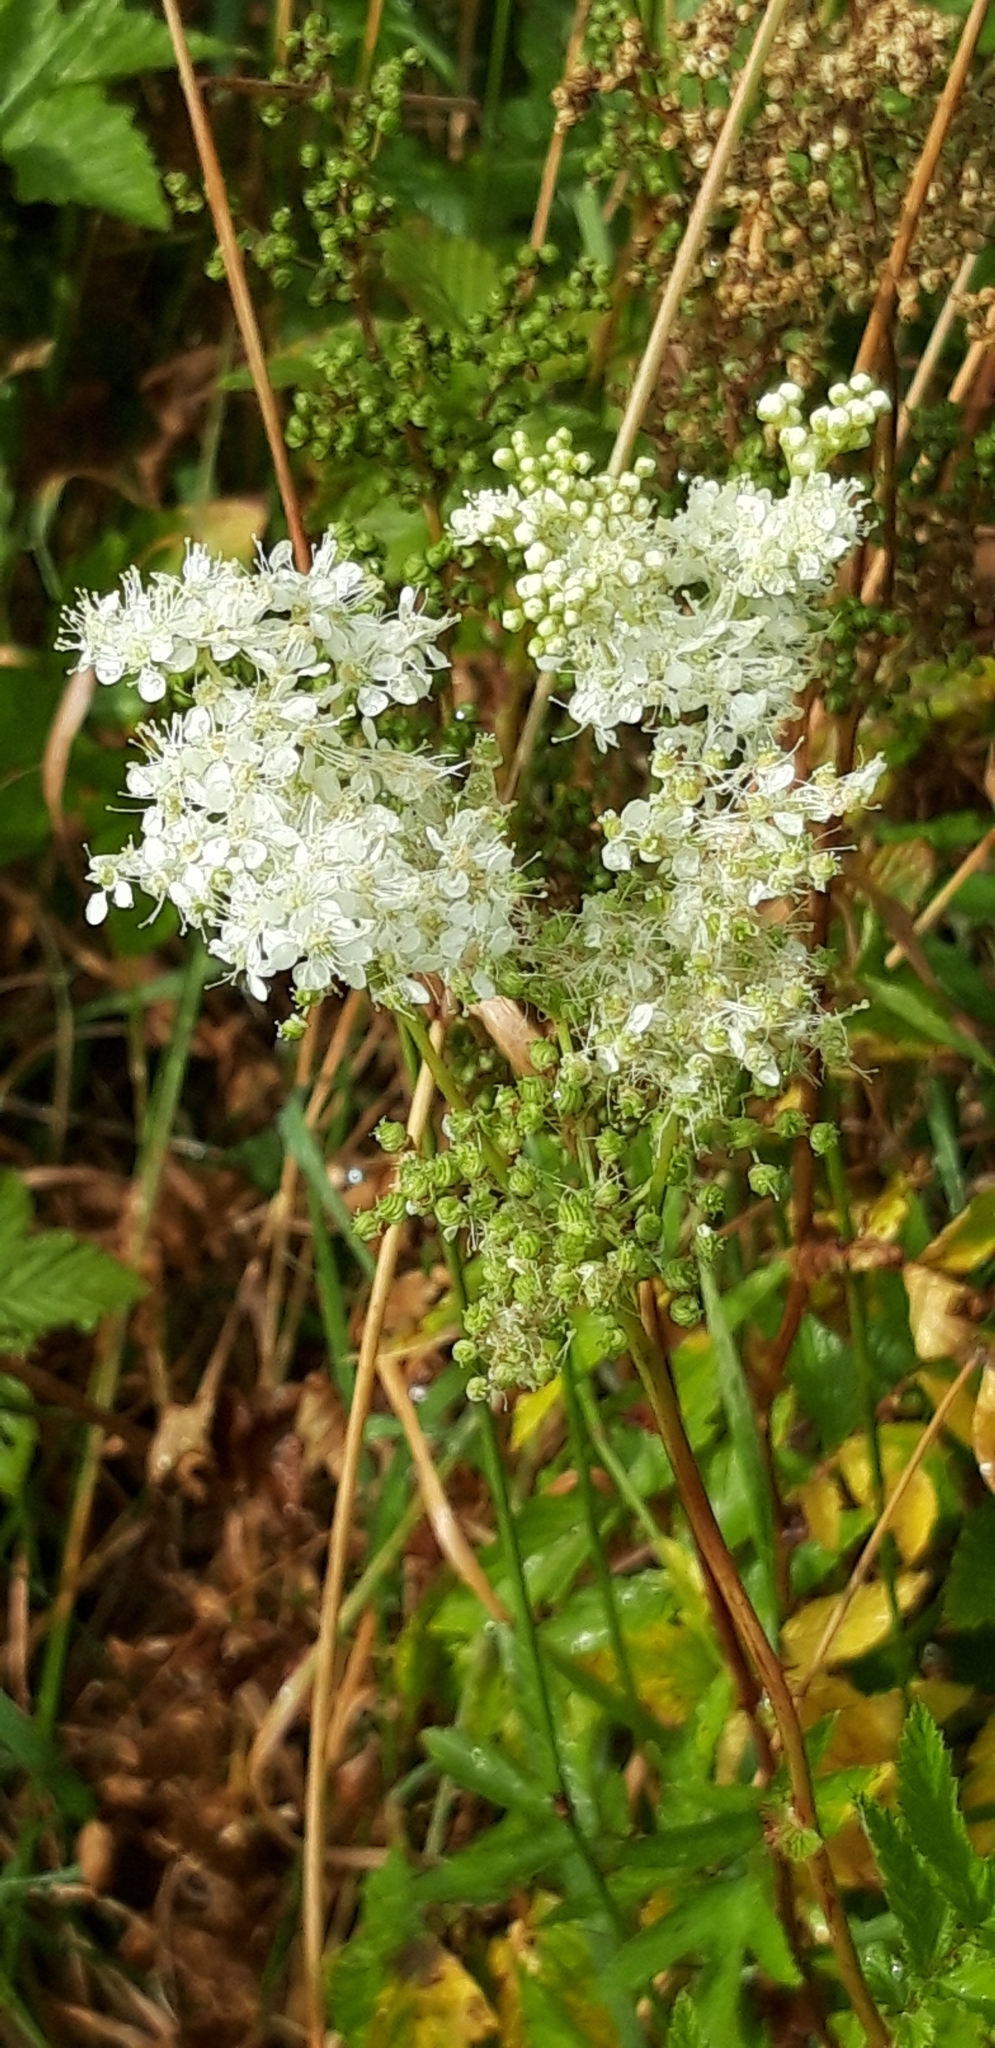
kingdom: Plantae
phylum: Tracheophyta
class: Magnoliopsida
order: Rosales
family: Rosaceae
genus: Filipendula
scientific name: Filipendula ulmaria
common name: Meadowsweet
